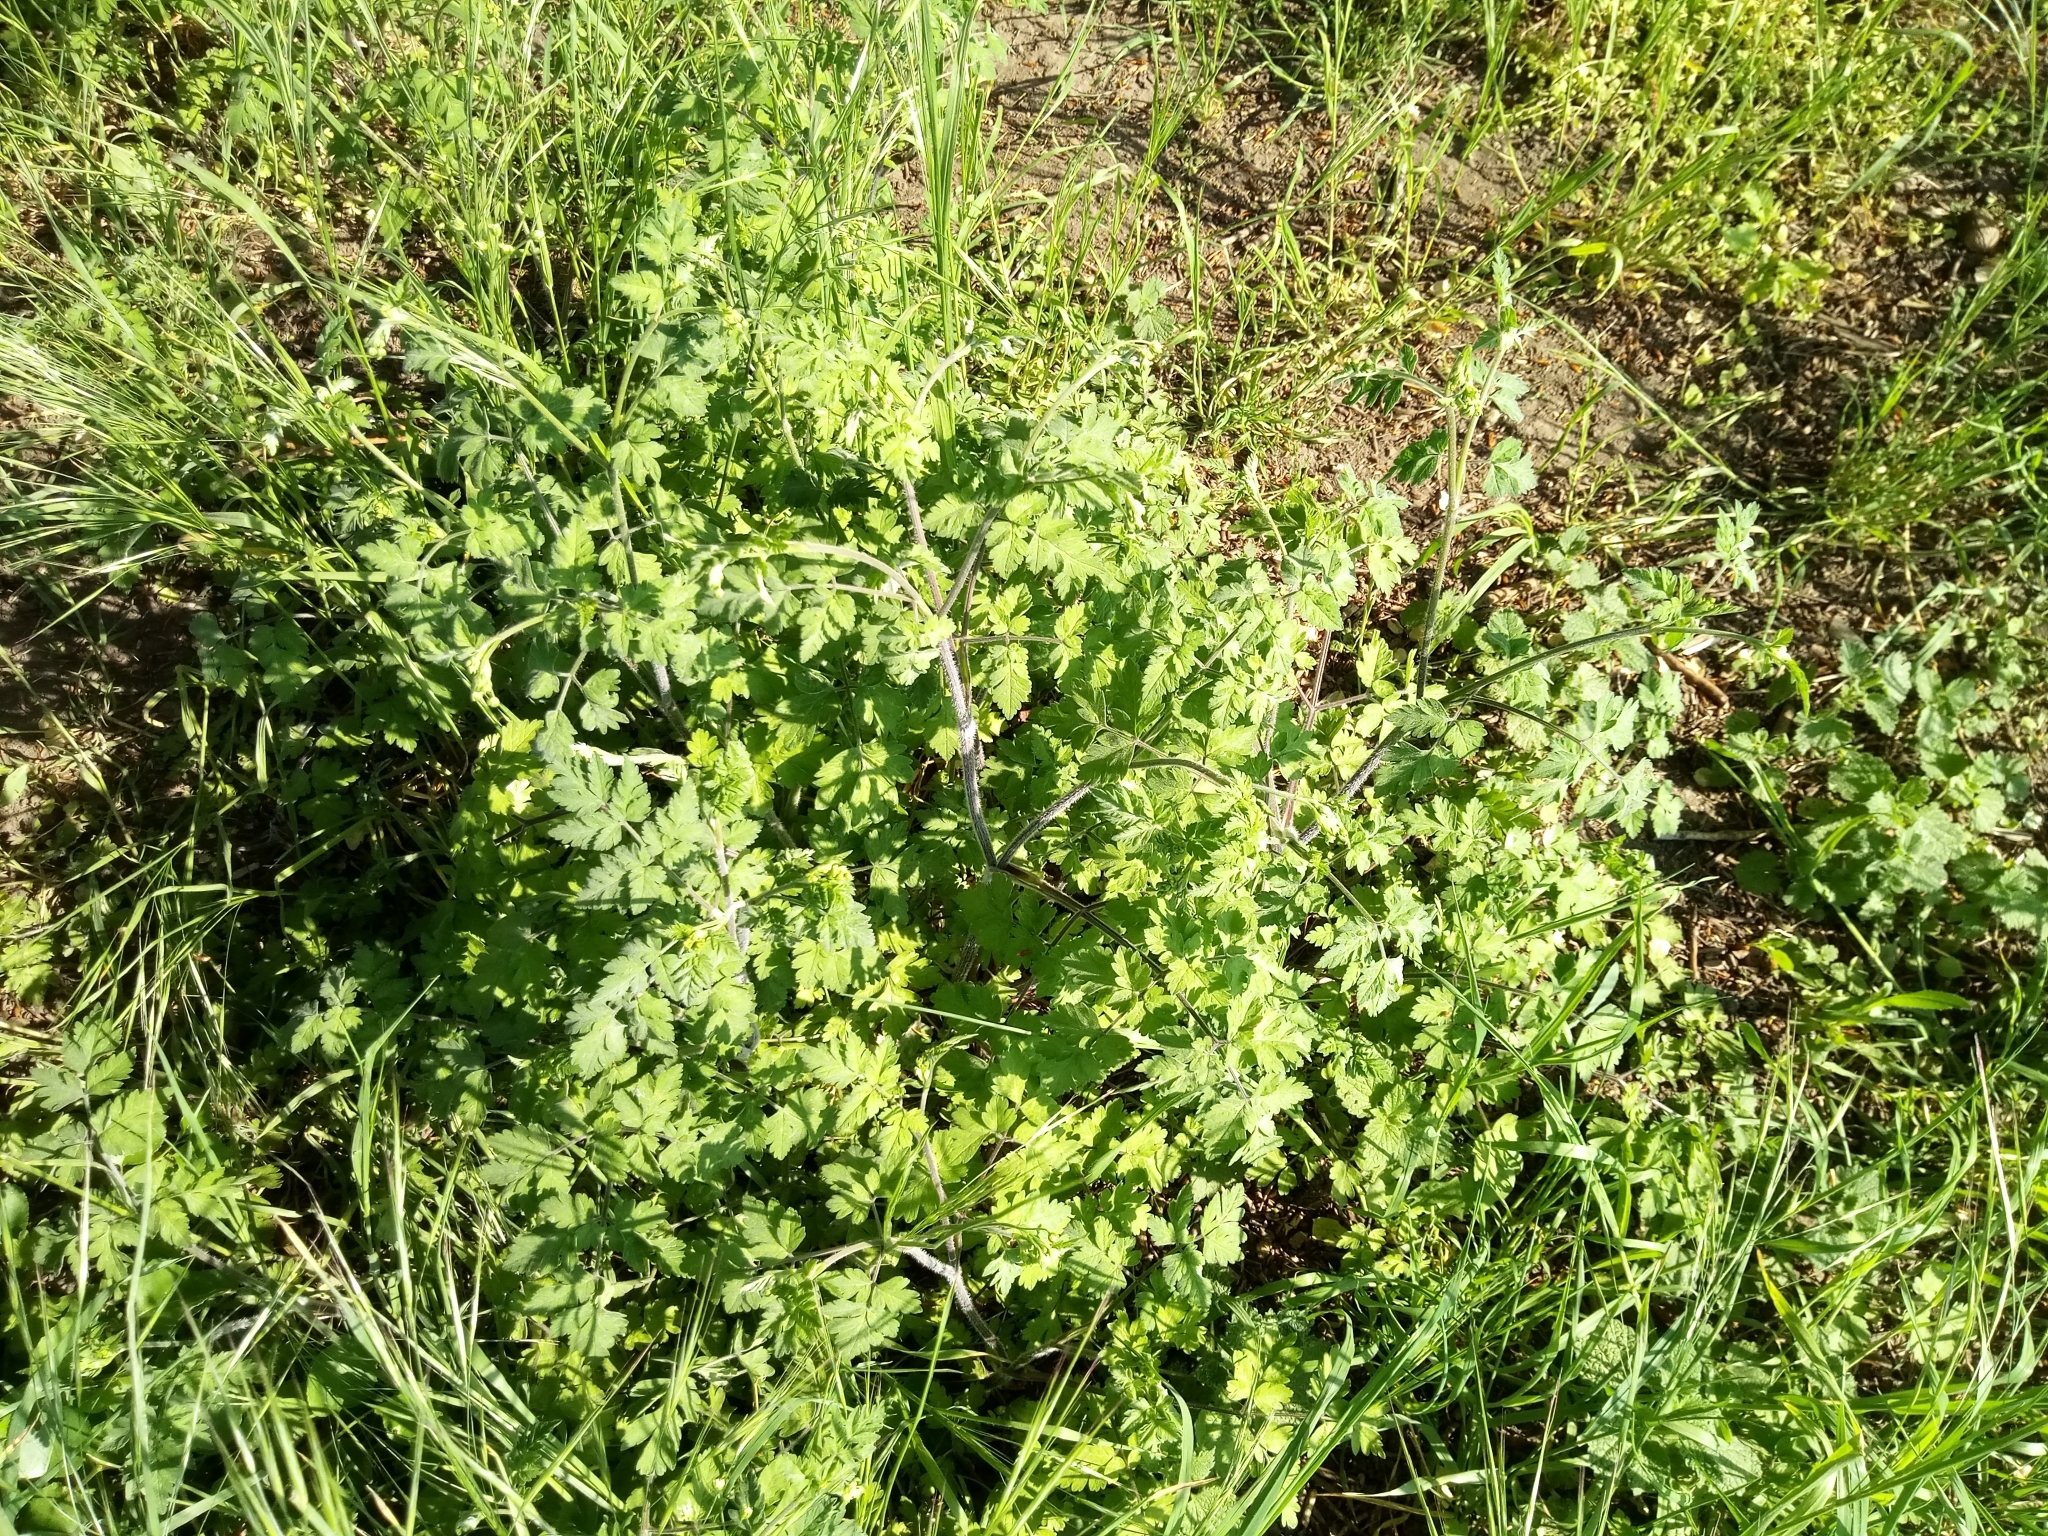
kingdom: Plantae
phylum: Tracheophyta
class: Magnoliopsida
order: Apiales
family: Apiaceae
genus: Chaerophyllum
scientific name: Chaerophyllum temulum
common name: Rough chervil
